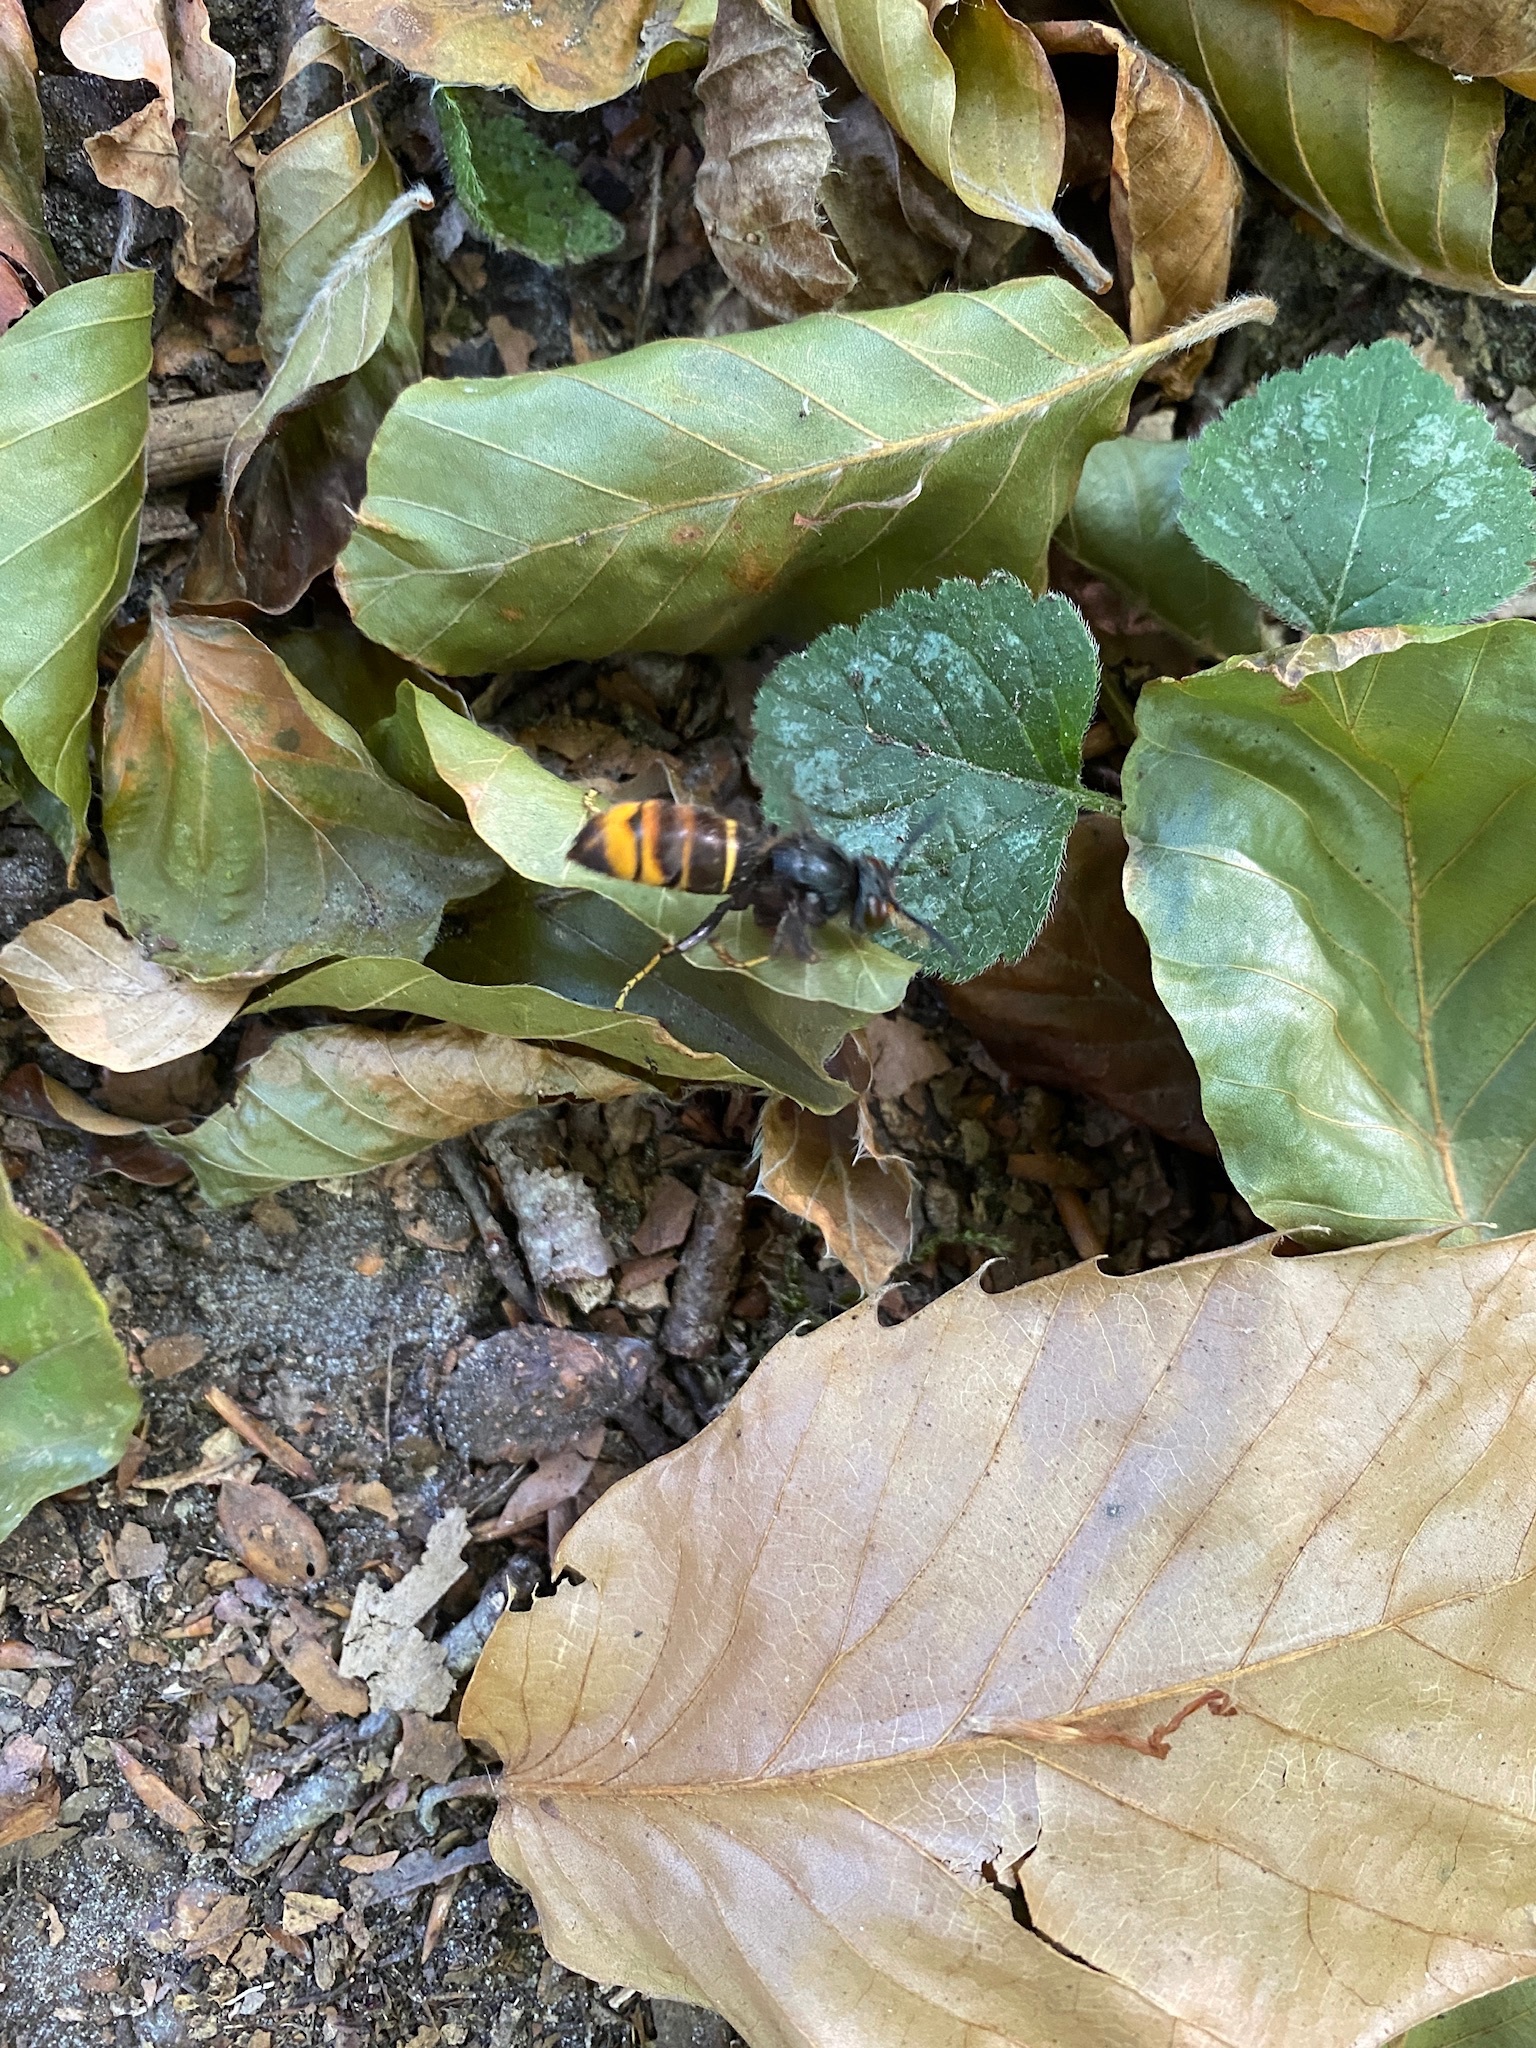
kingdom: Animalia
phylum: Arthropoda
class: Insecta
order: Hymenoptera
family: Vespidae
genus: Vespa
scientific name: Vespa velutina
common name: Asian hornet
